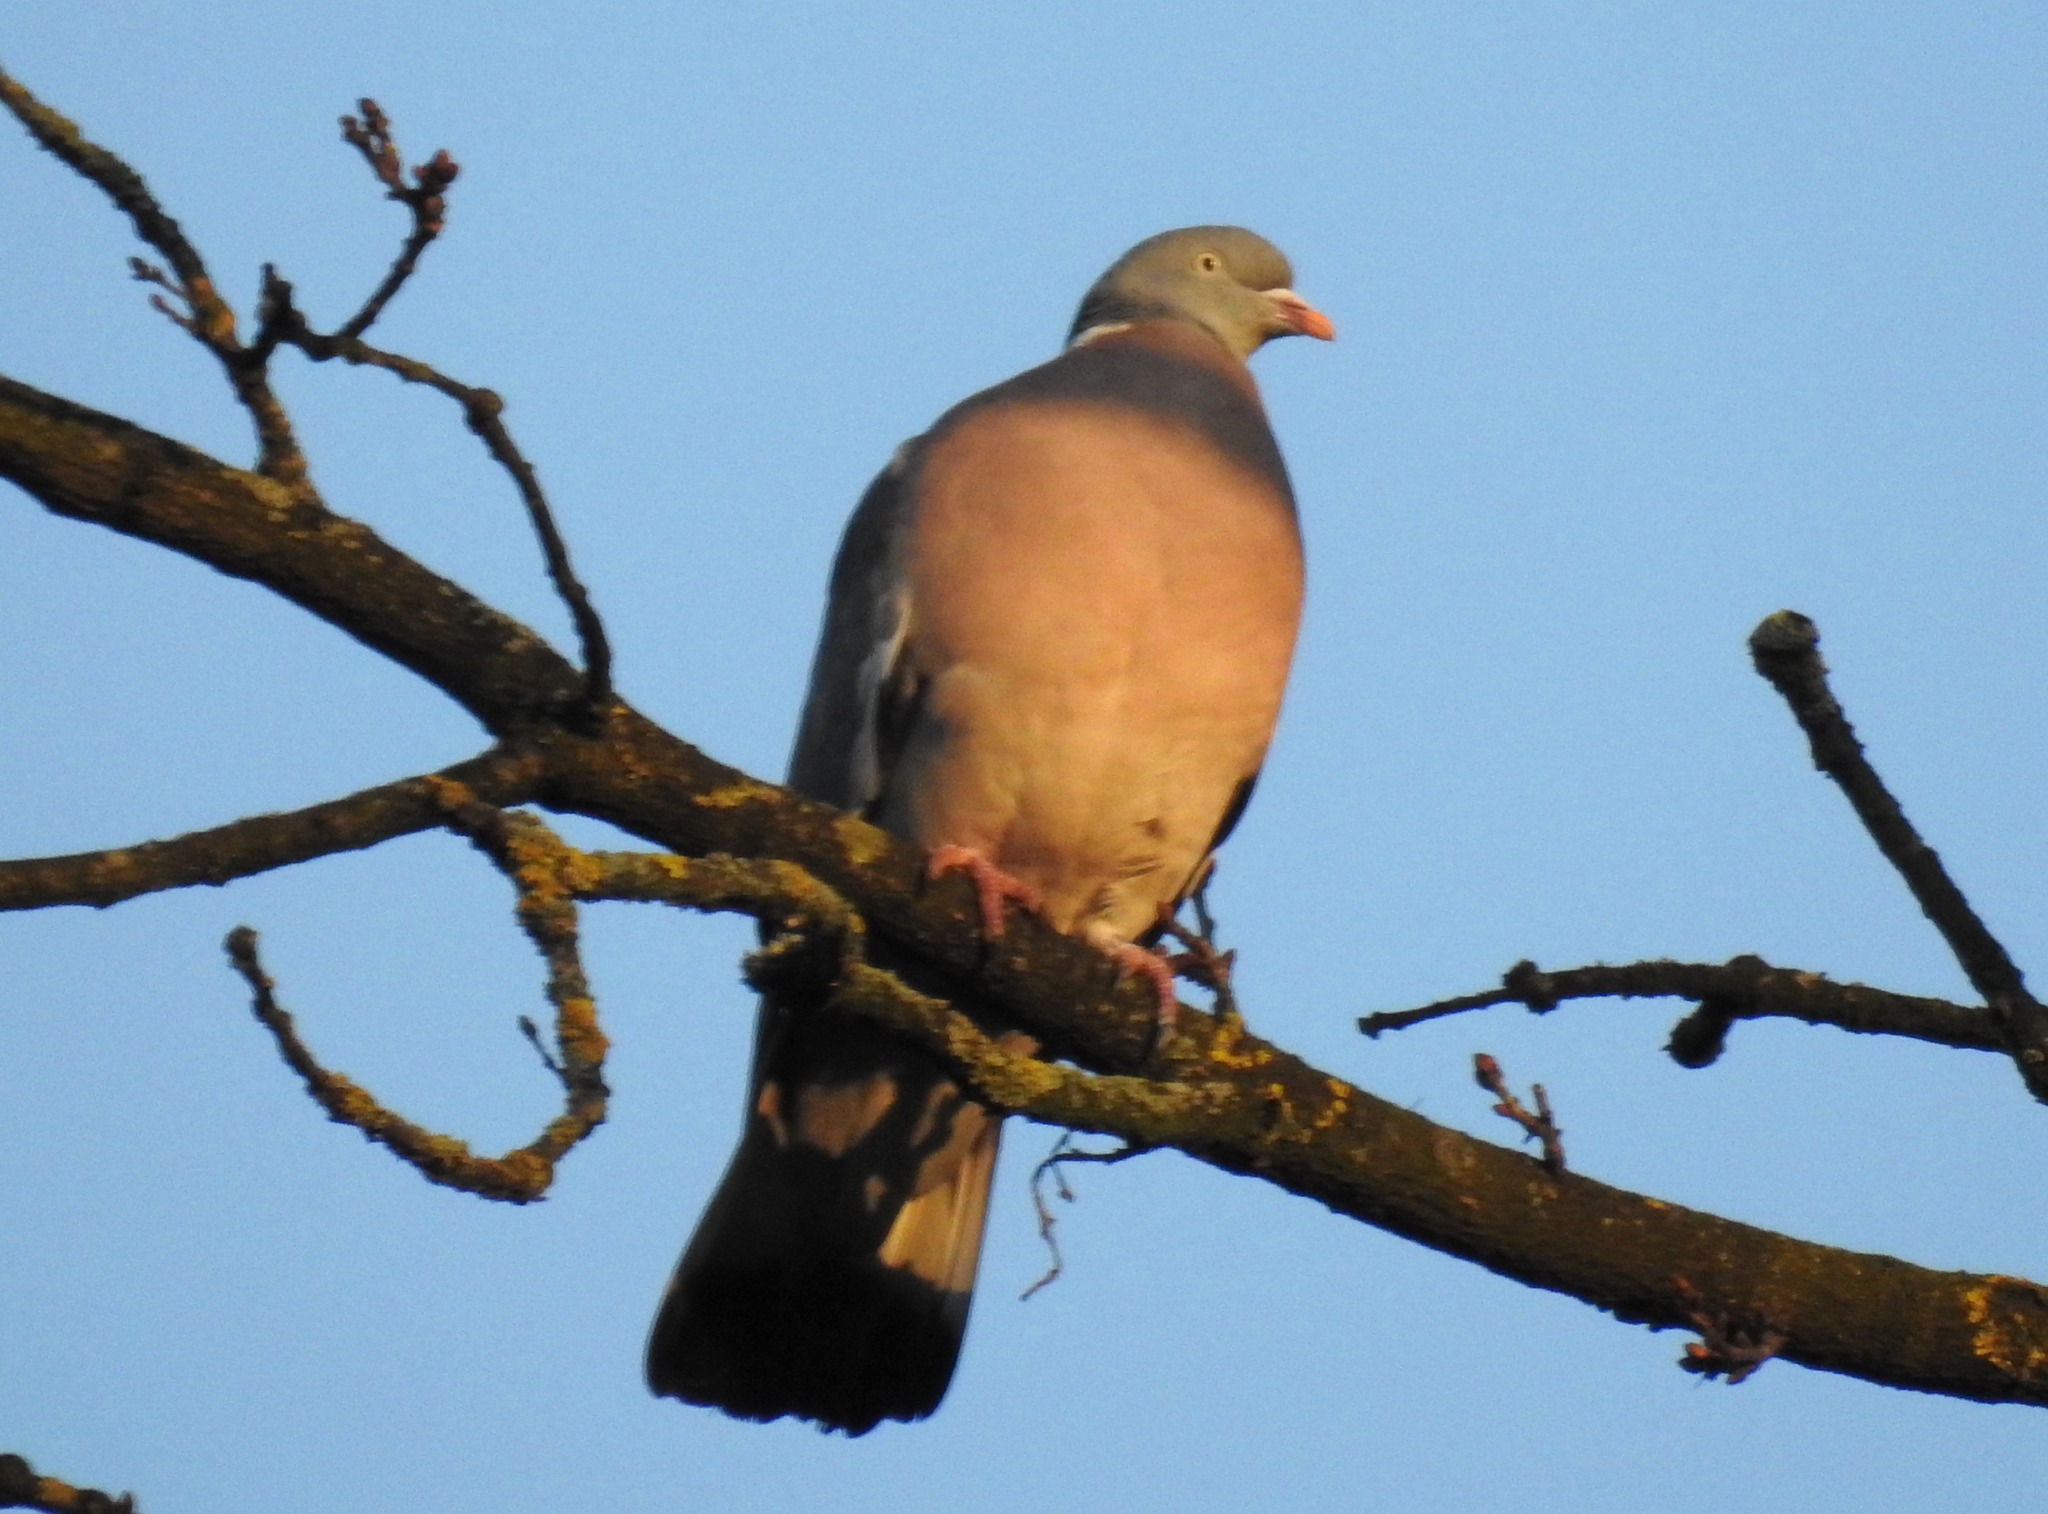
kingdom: Animalia
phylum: Chordata
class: Aves
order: Columbiformes
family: Columbidae
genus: Columba
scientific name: Columba palumbus
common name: Common wood pigeon
